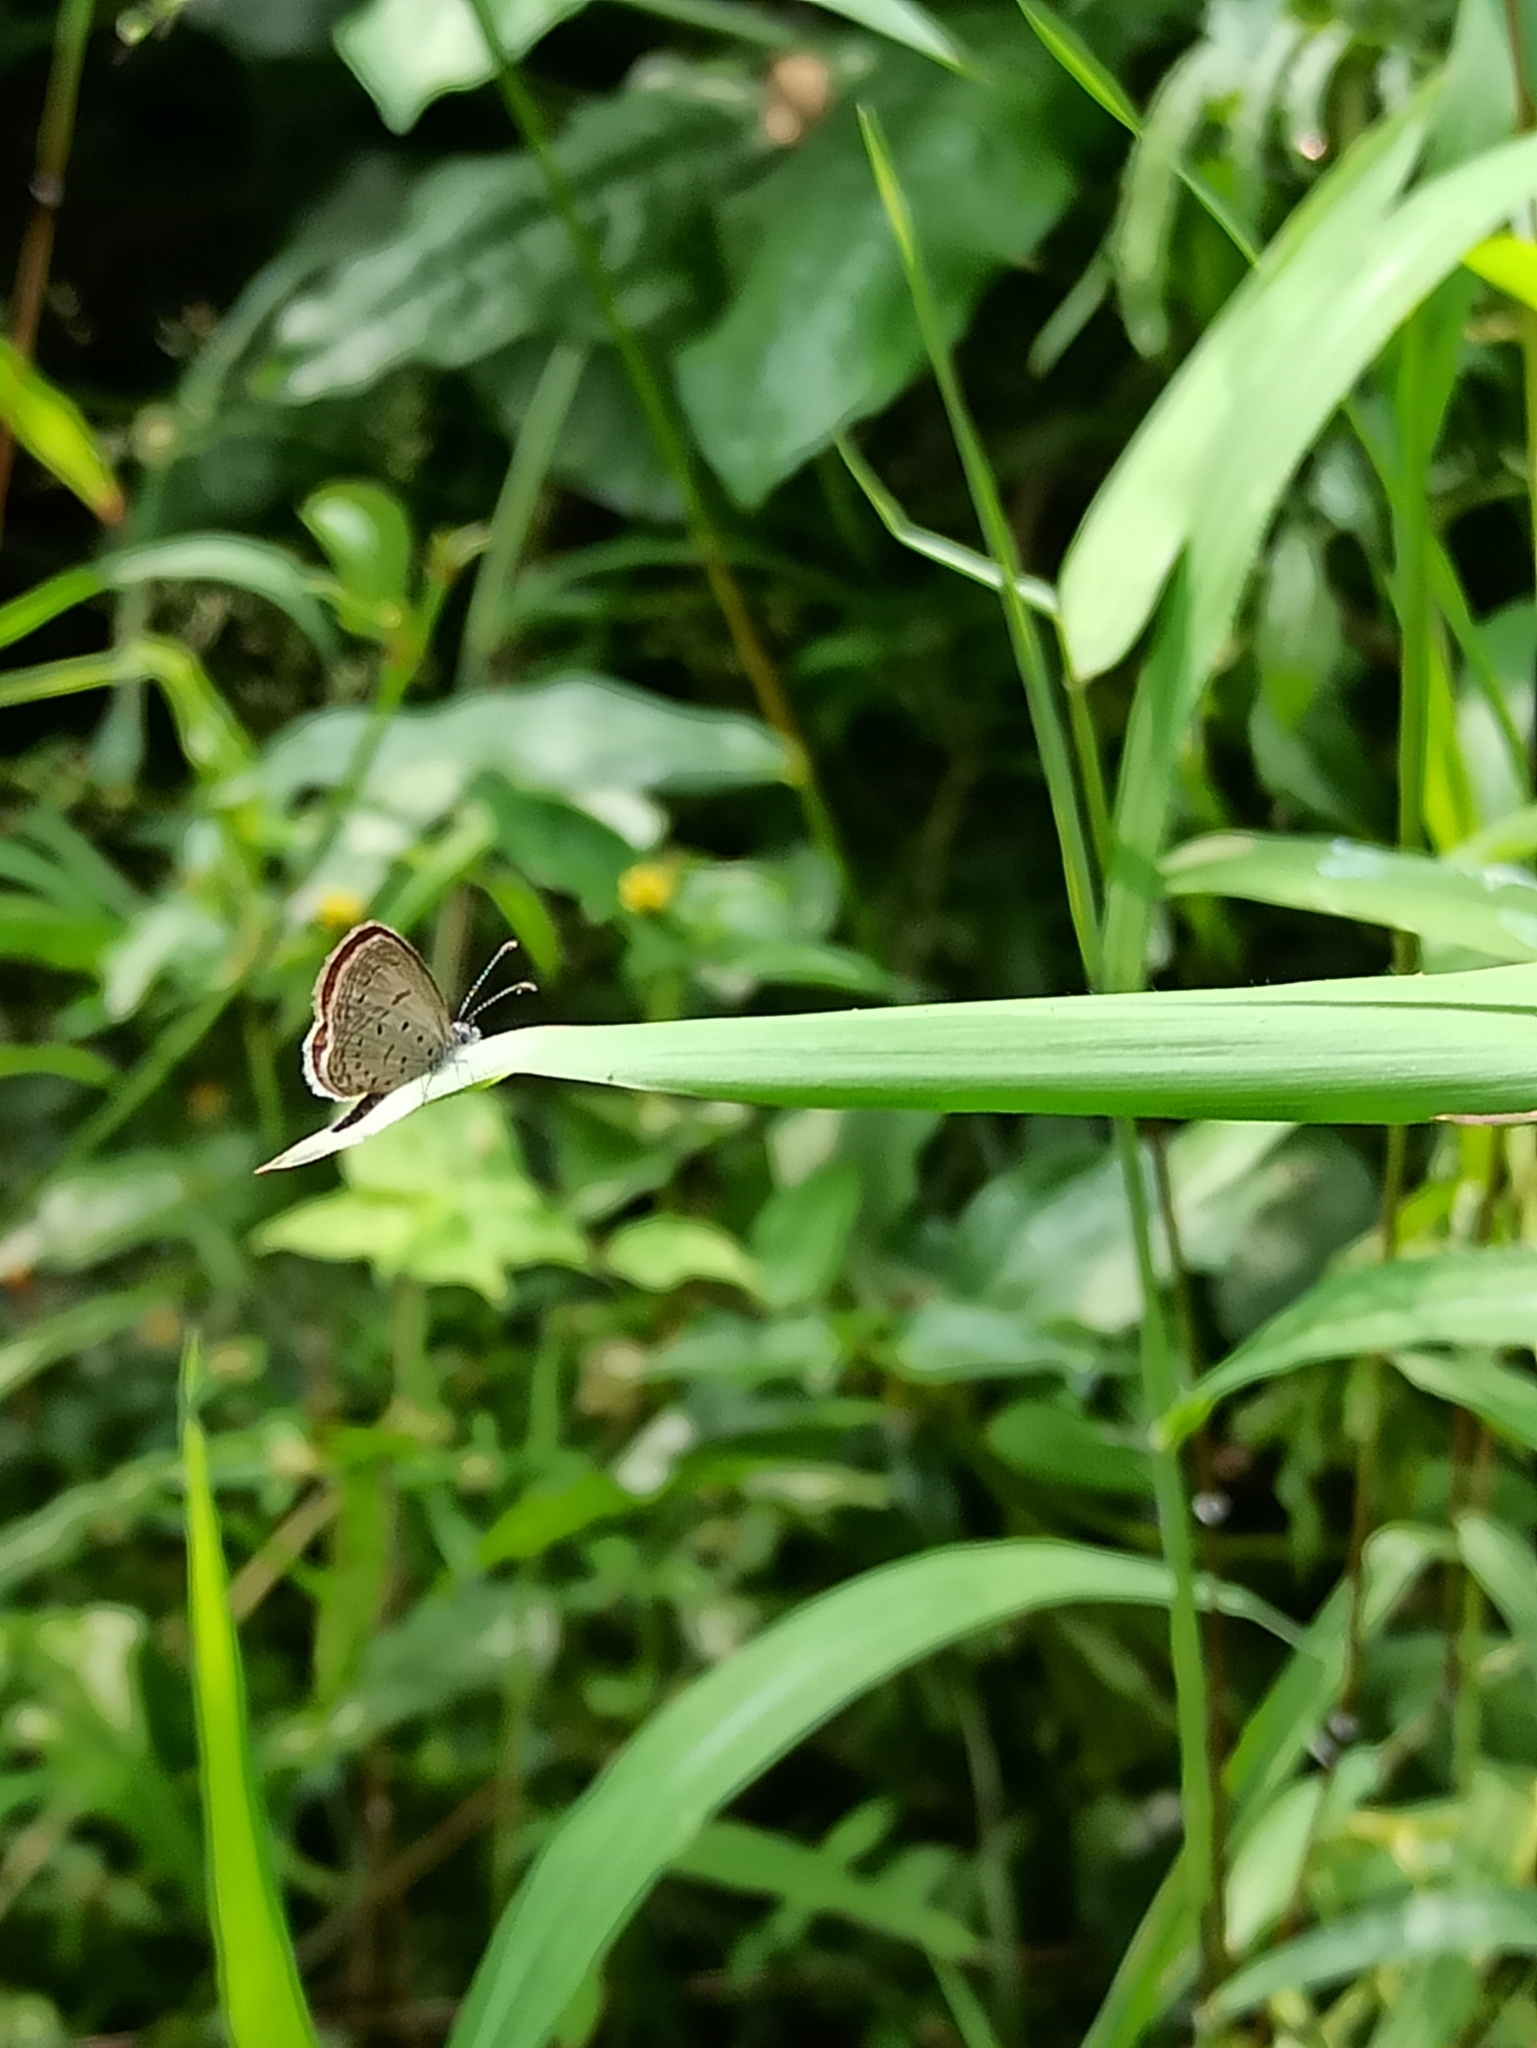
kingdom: Animalia
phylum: Arthropoda
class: Insecta
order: Lepidoptera
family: Lycaenidae
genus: Zizula
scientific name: Zizula hylax
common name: Gaika blue
